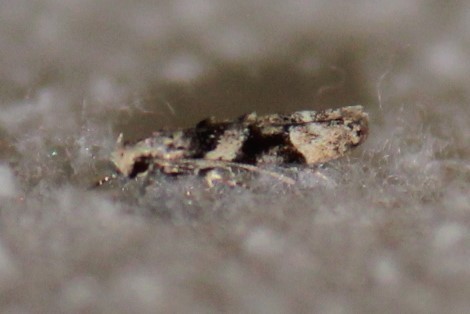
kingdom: Animalia
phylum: Arthropoda
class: Insecta
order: Lepidoptera
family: Gelechiidae
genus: Coleotechnites
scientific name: Coleotechnites atrupictella
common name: Spruce micromoth
